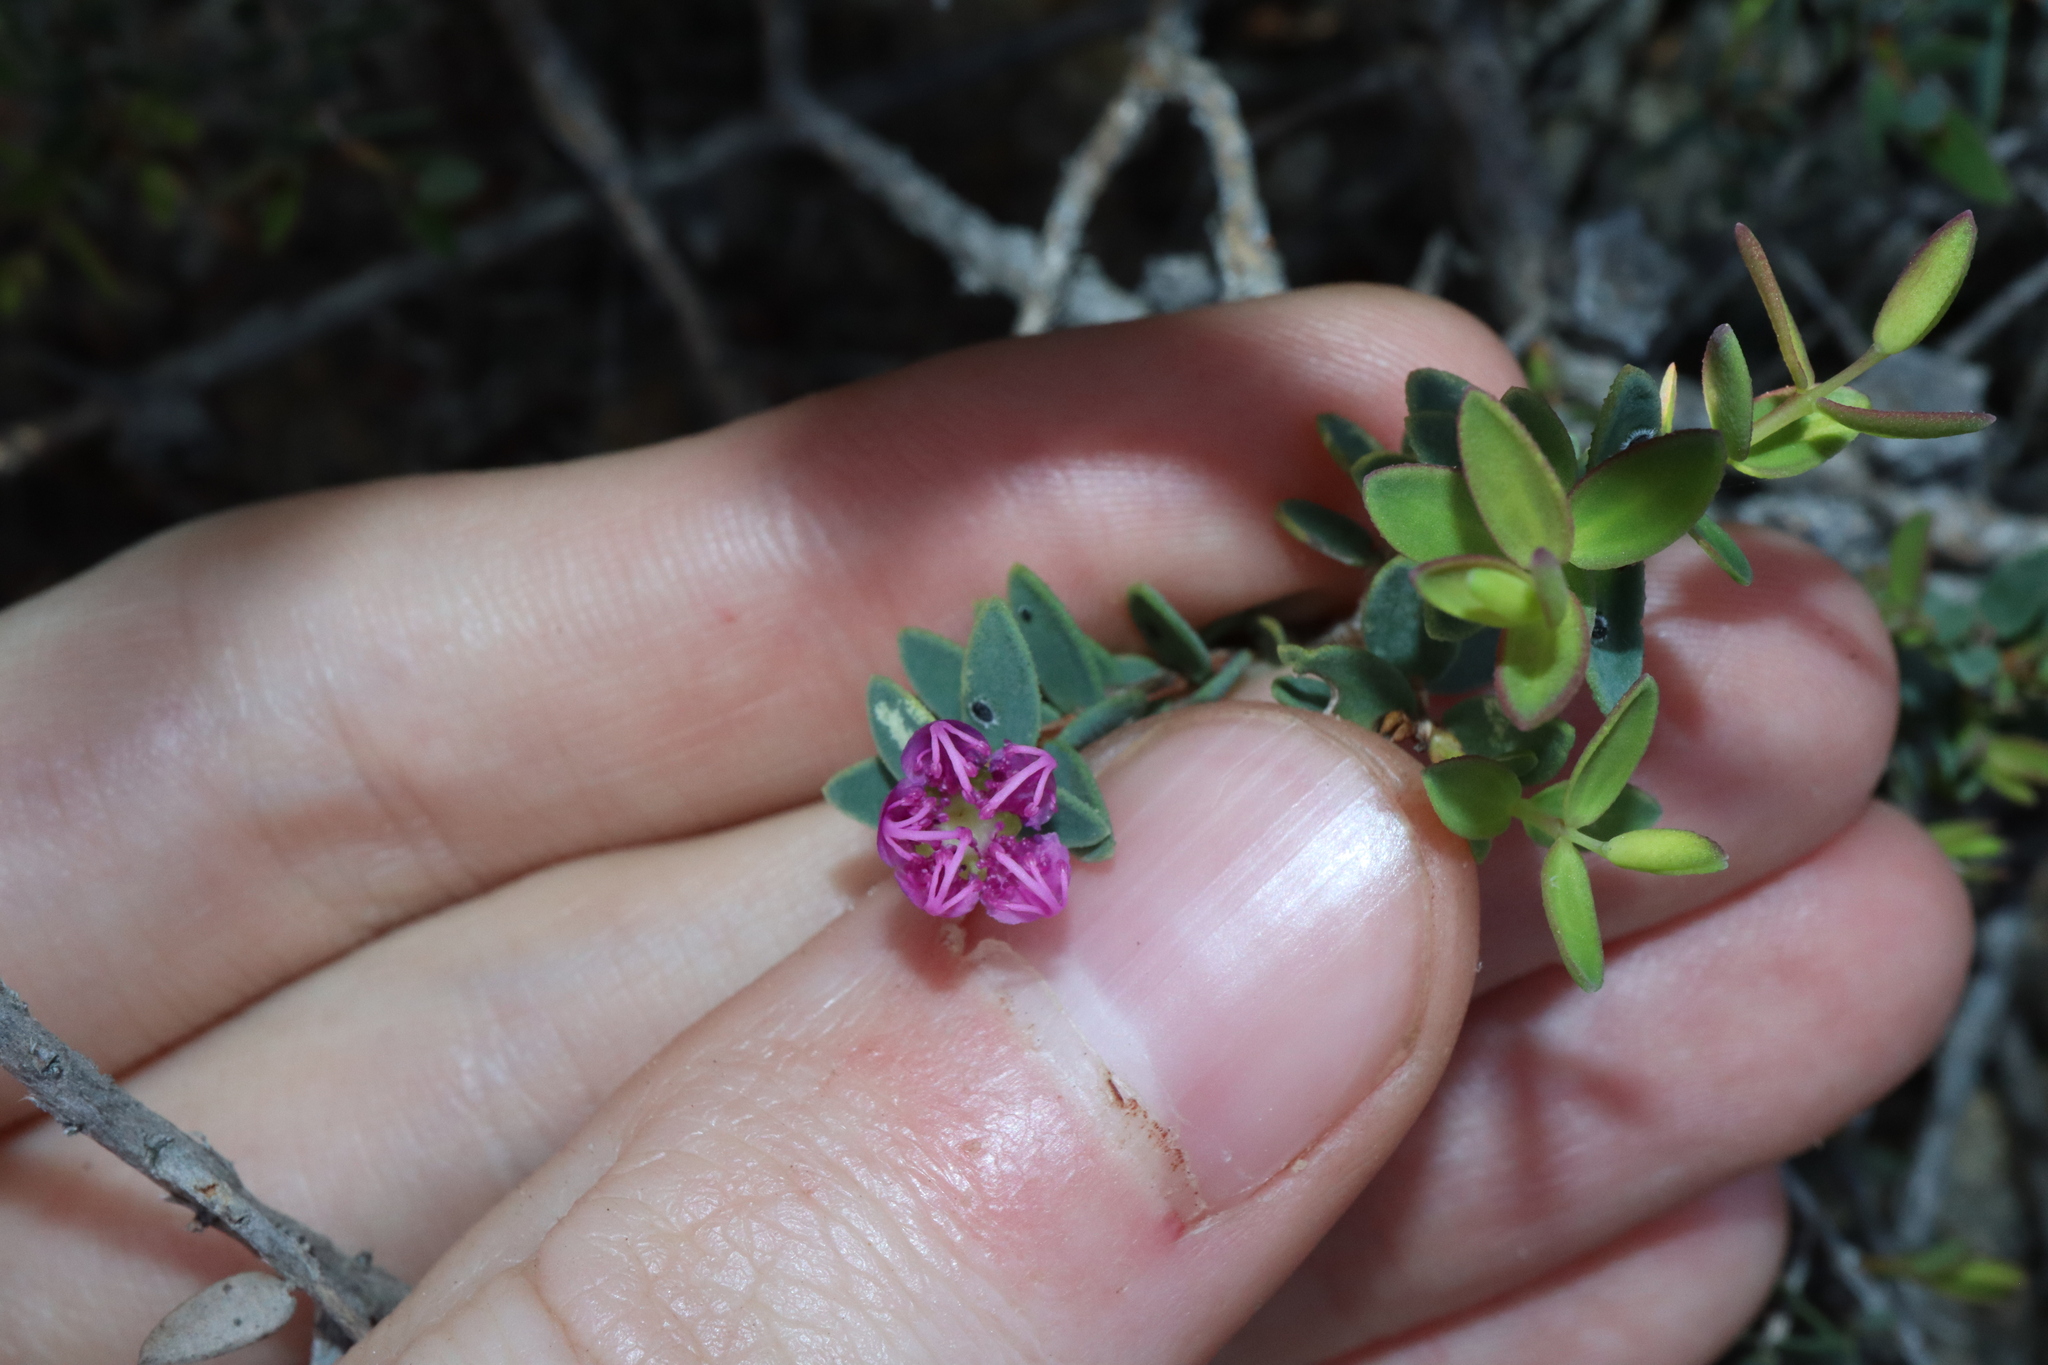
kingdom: Plantae
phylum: Tracheophyta
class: Magnoliopsida
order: Myrtales
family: Myrtaceae
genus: Melaleuca
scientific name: Melaleuca violacea
